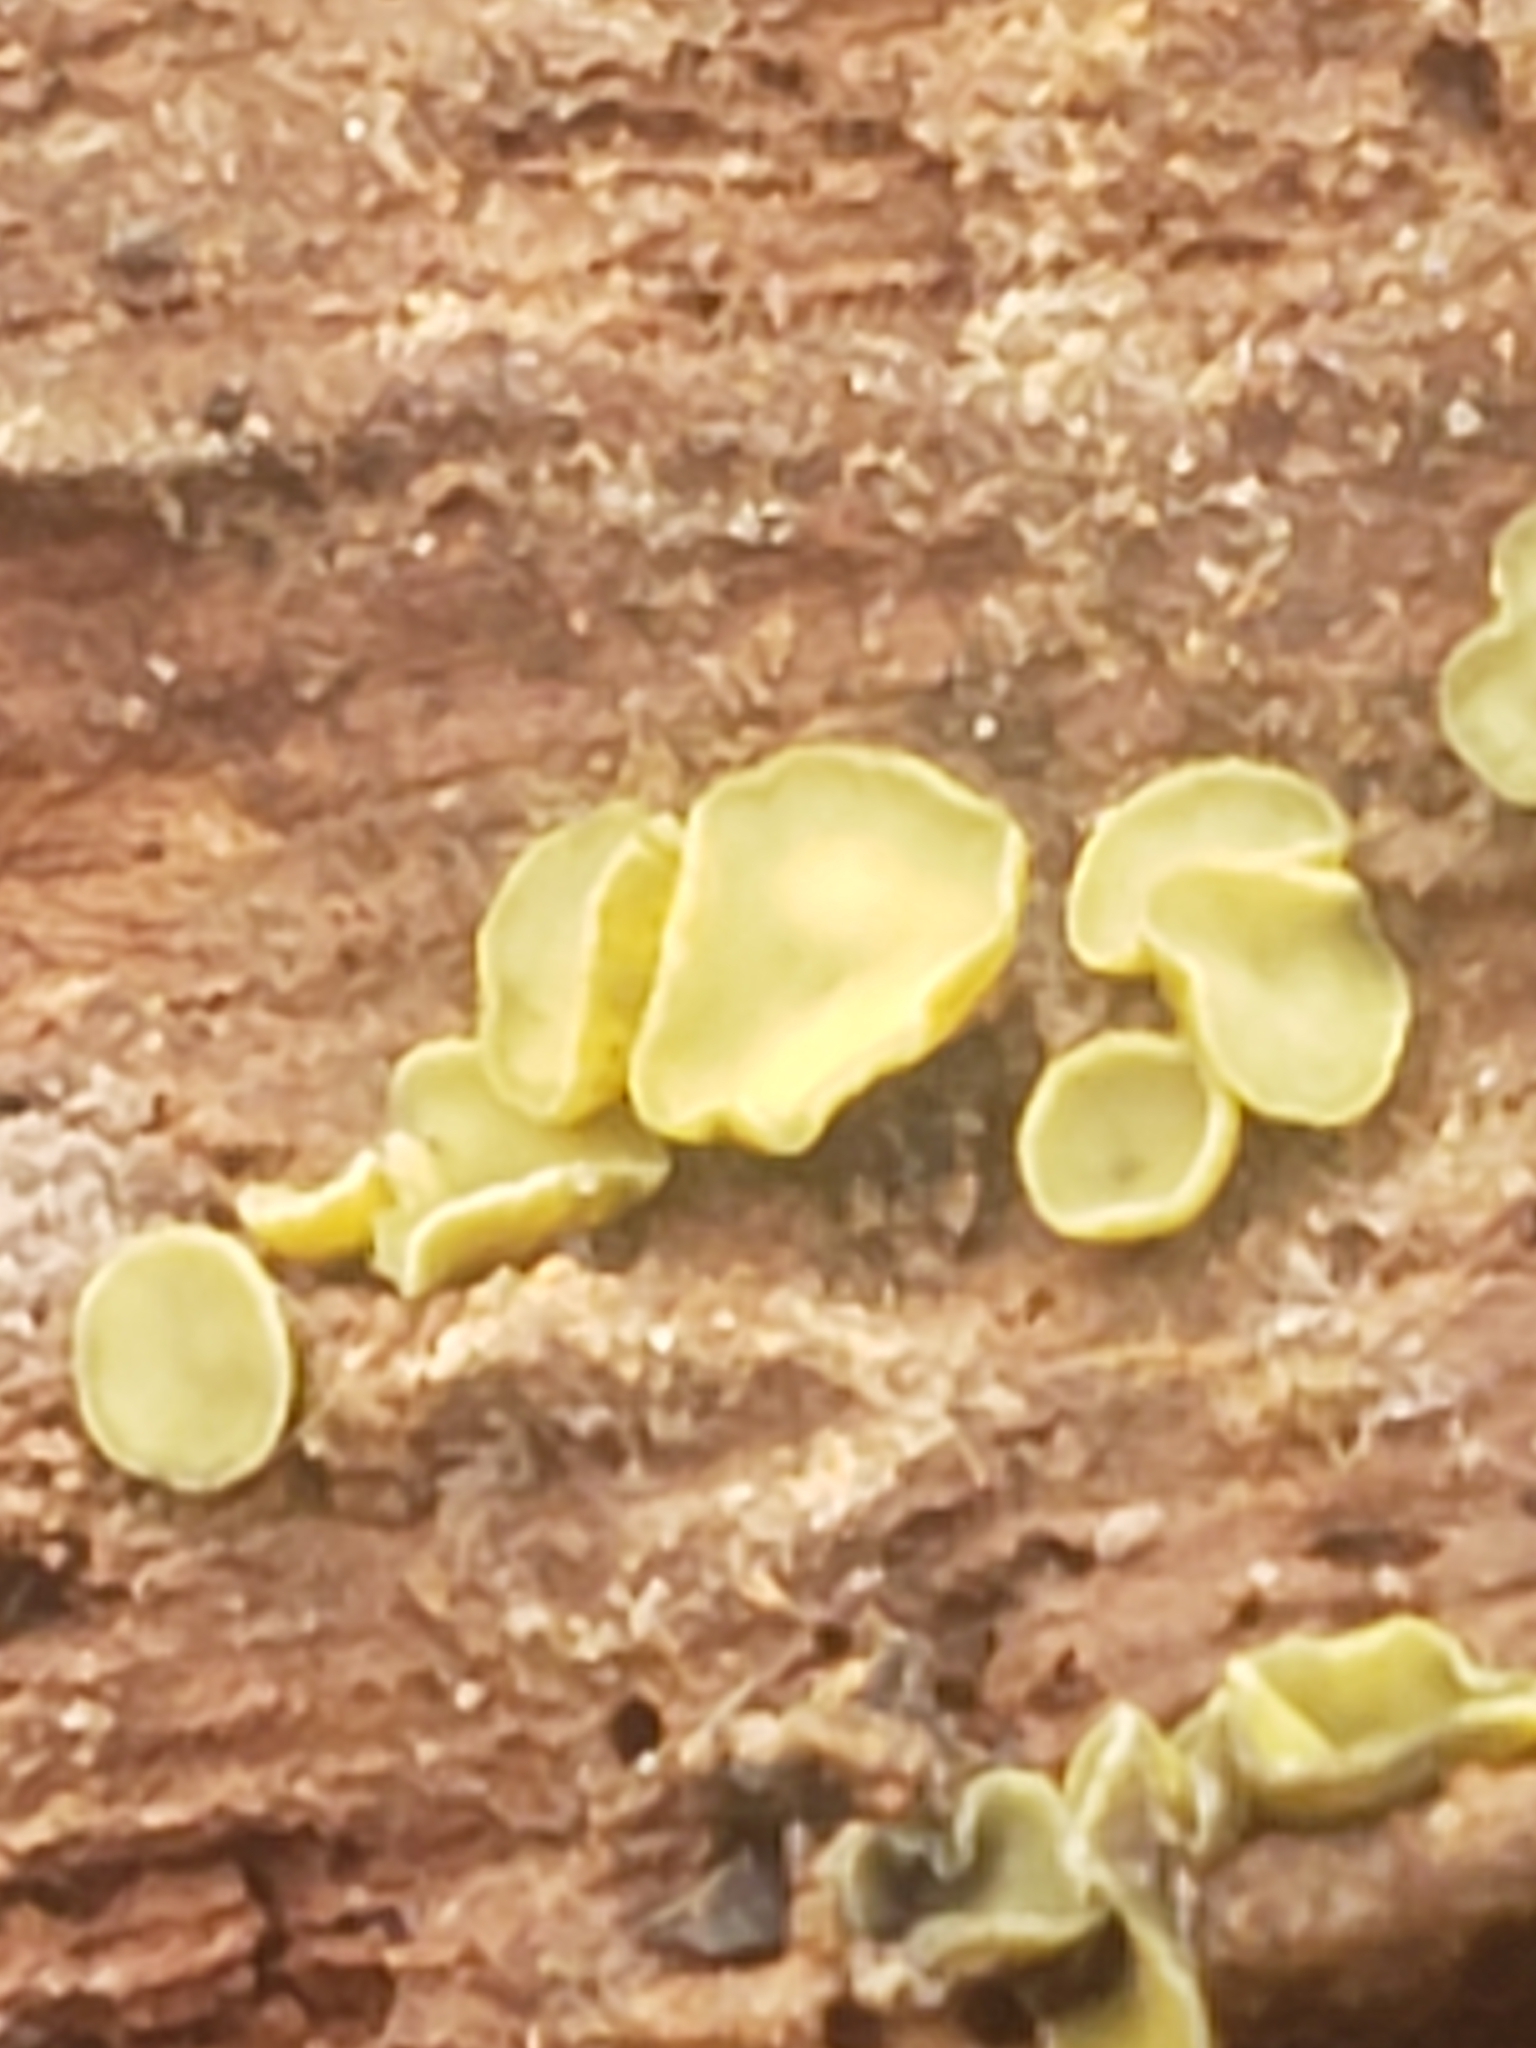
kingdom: Fungi
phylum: Ascomycota
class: Leotiomycetes
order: Helotiales
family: Chlorospleniaceae
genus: Chlorosplenium
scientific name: Chlorosplenium chlora
